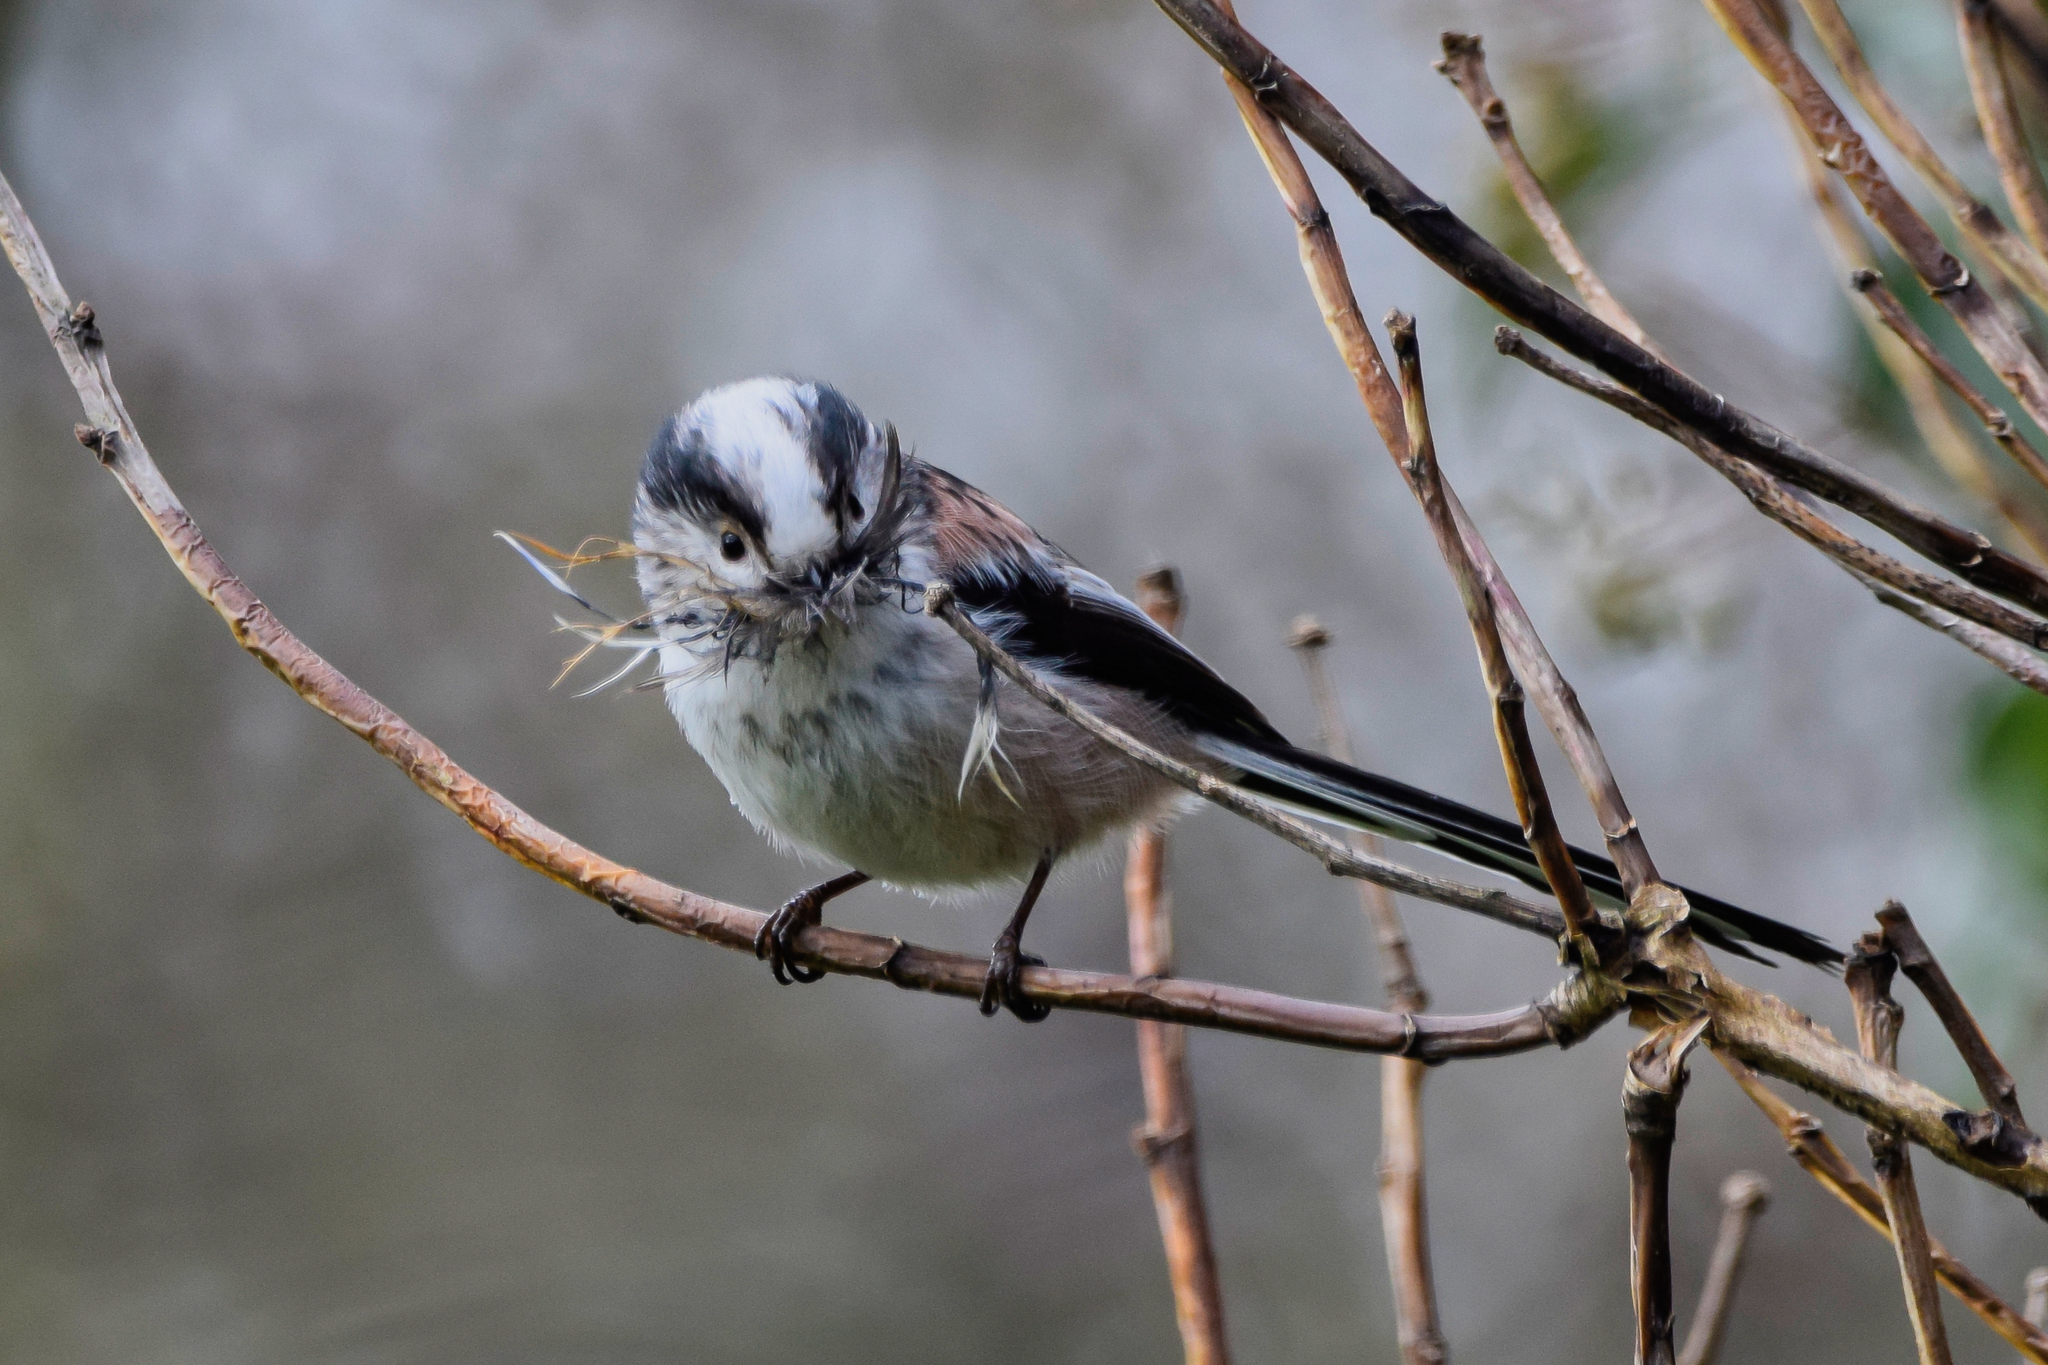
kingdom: Animalia
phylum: Chordata
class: Aves
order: Passeriformes
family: Aegithalidae
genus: Aegithalos
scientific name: Aegithalos caudatus
